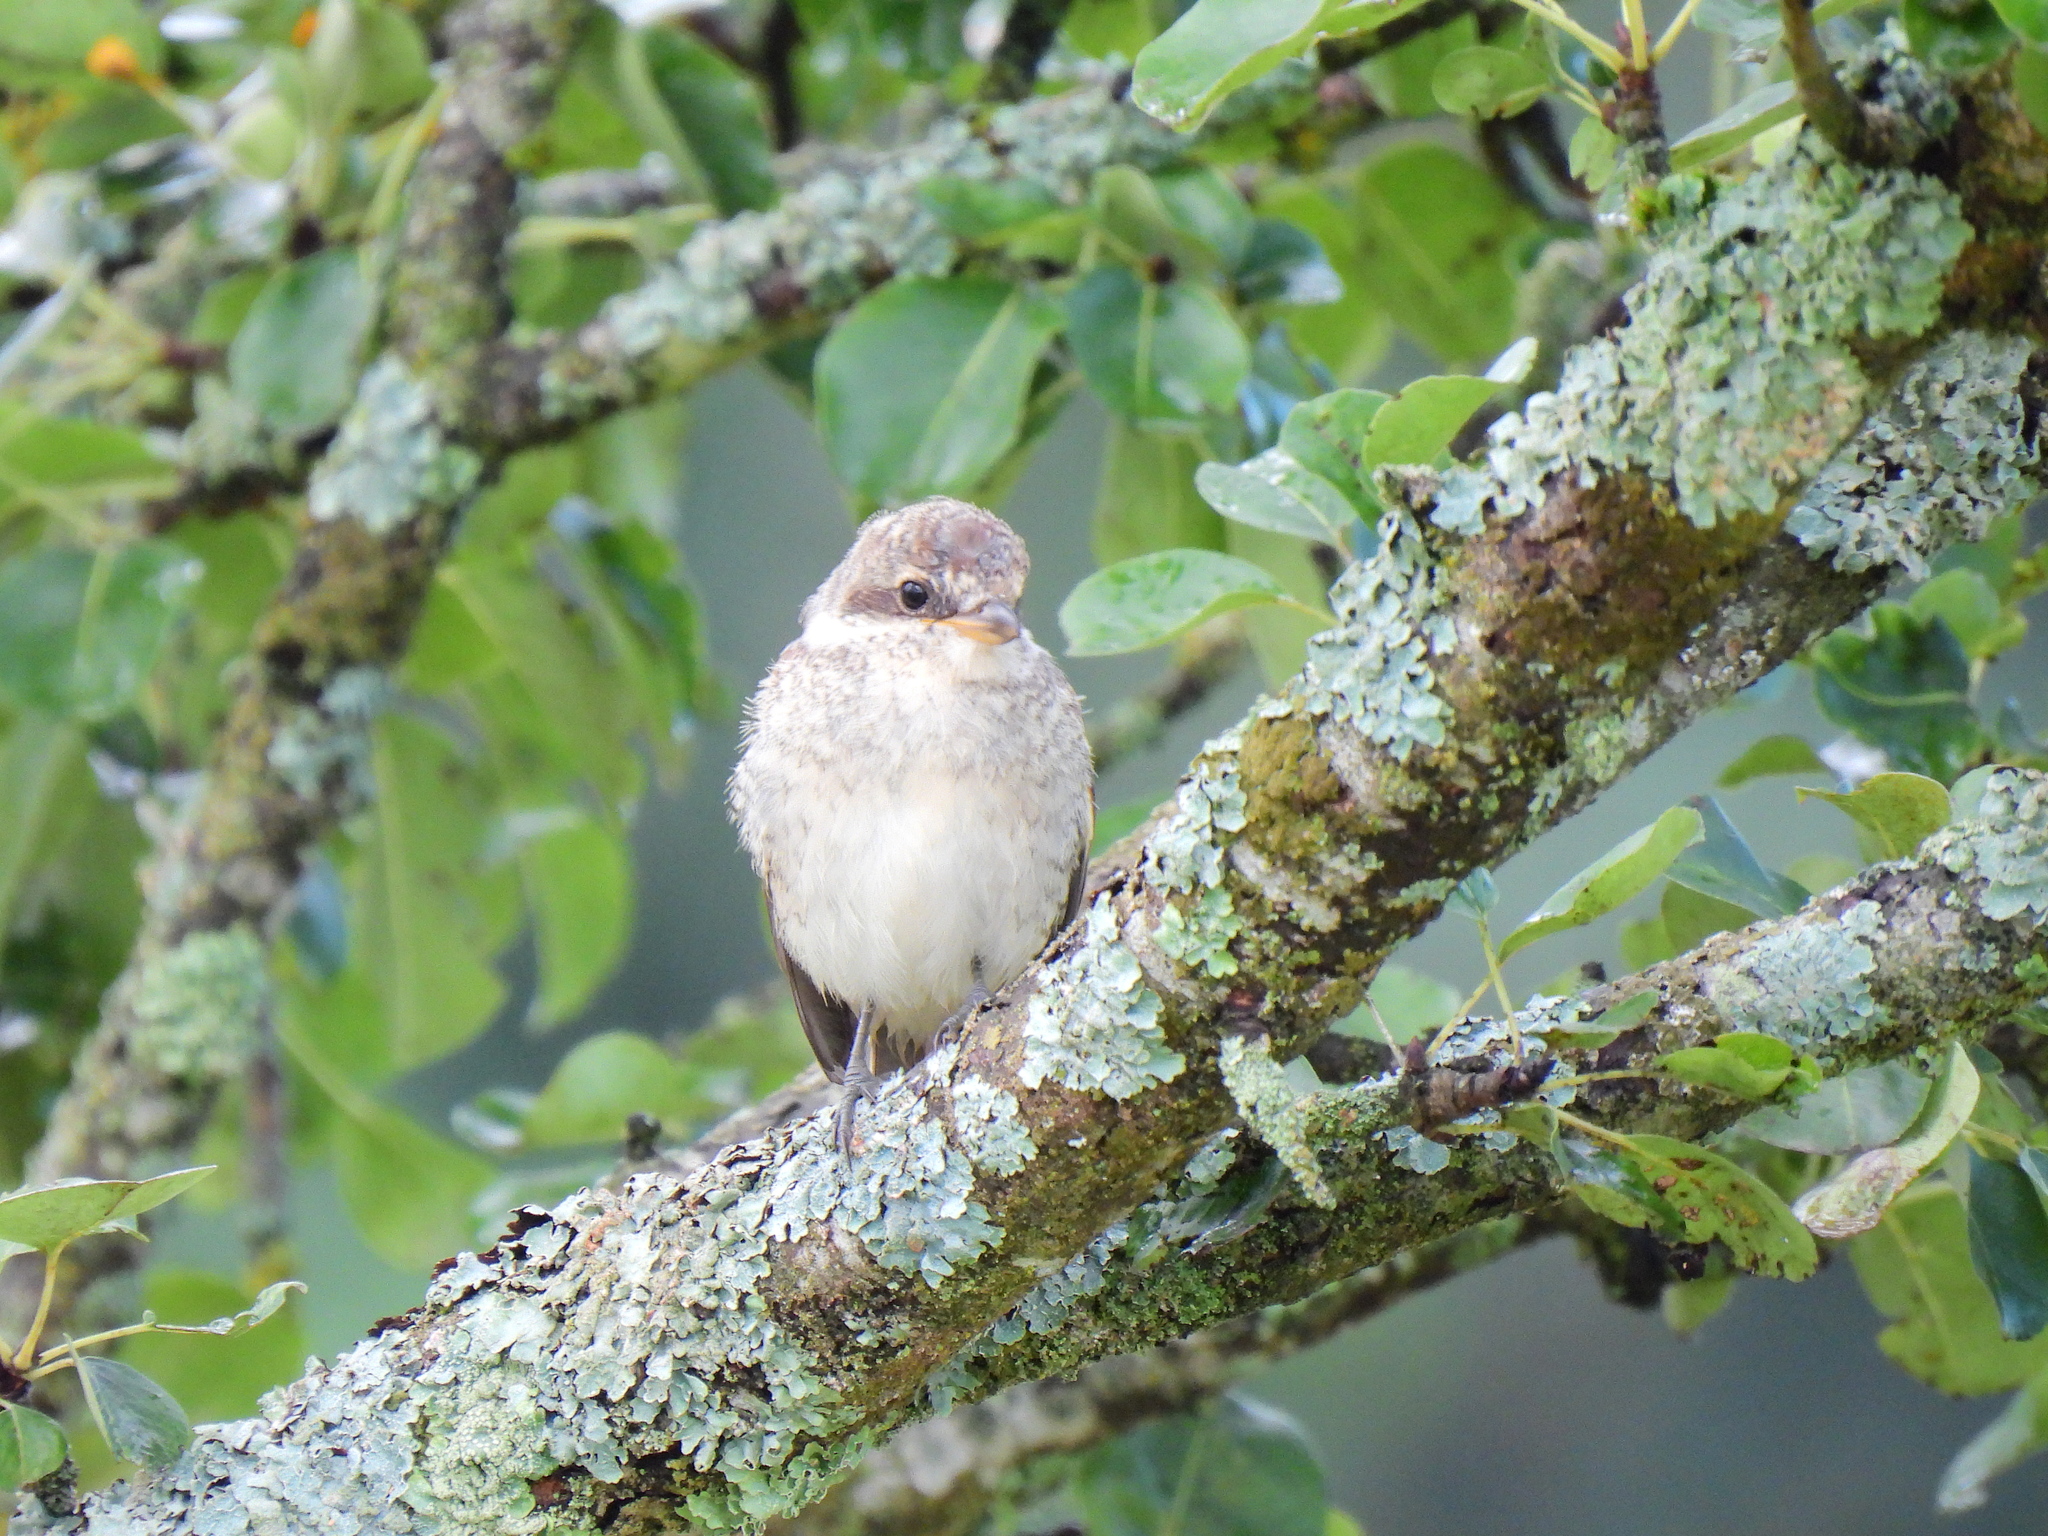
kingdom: Animalia
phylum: Chordata
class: Aves
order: Passeriformes
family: Laniidae
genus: Lanius
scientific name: Lanius collurio
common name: Red-backed shrike
